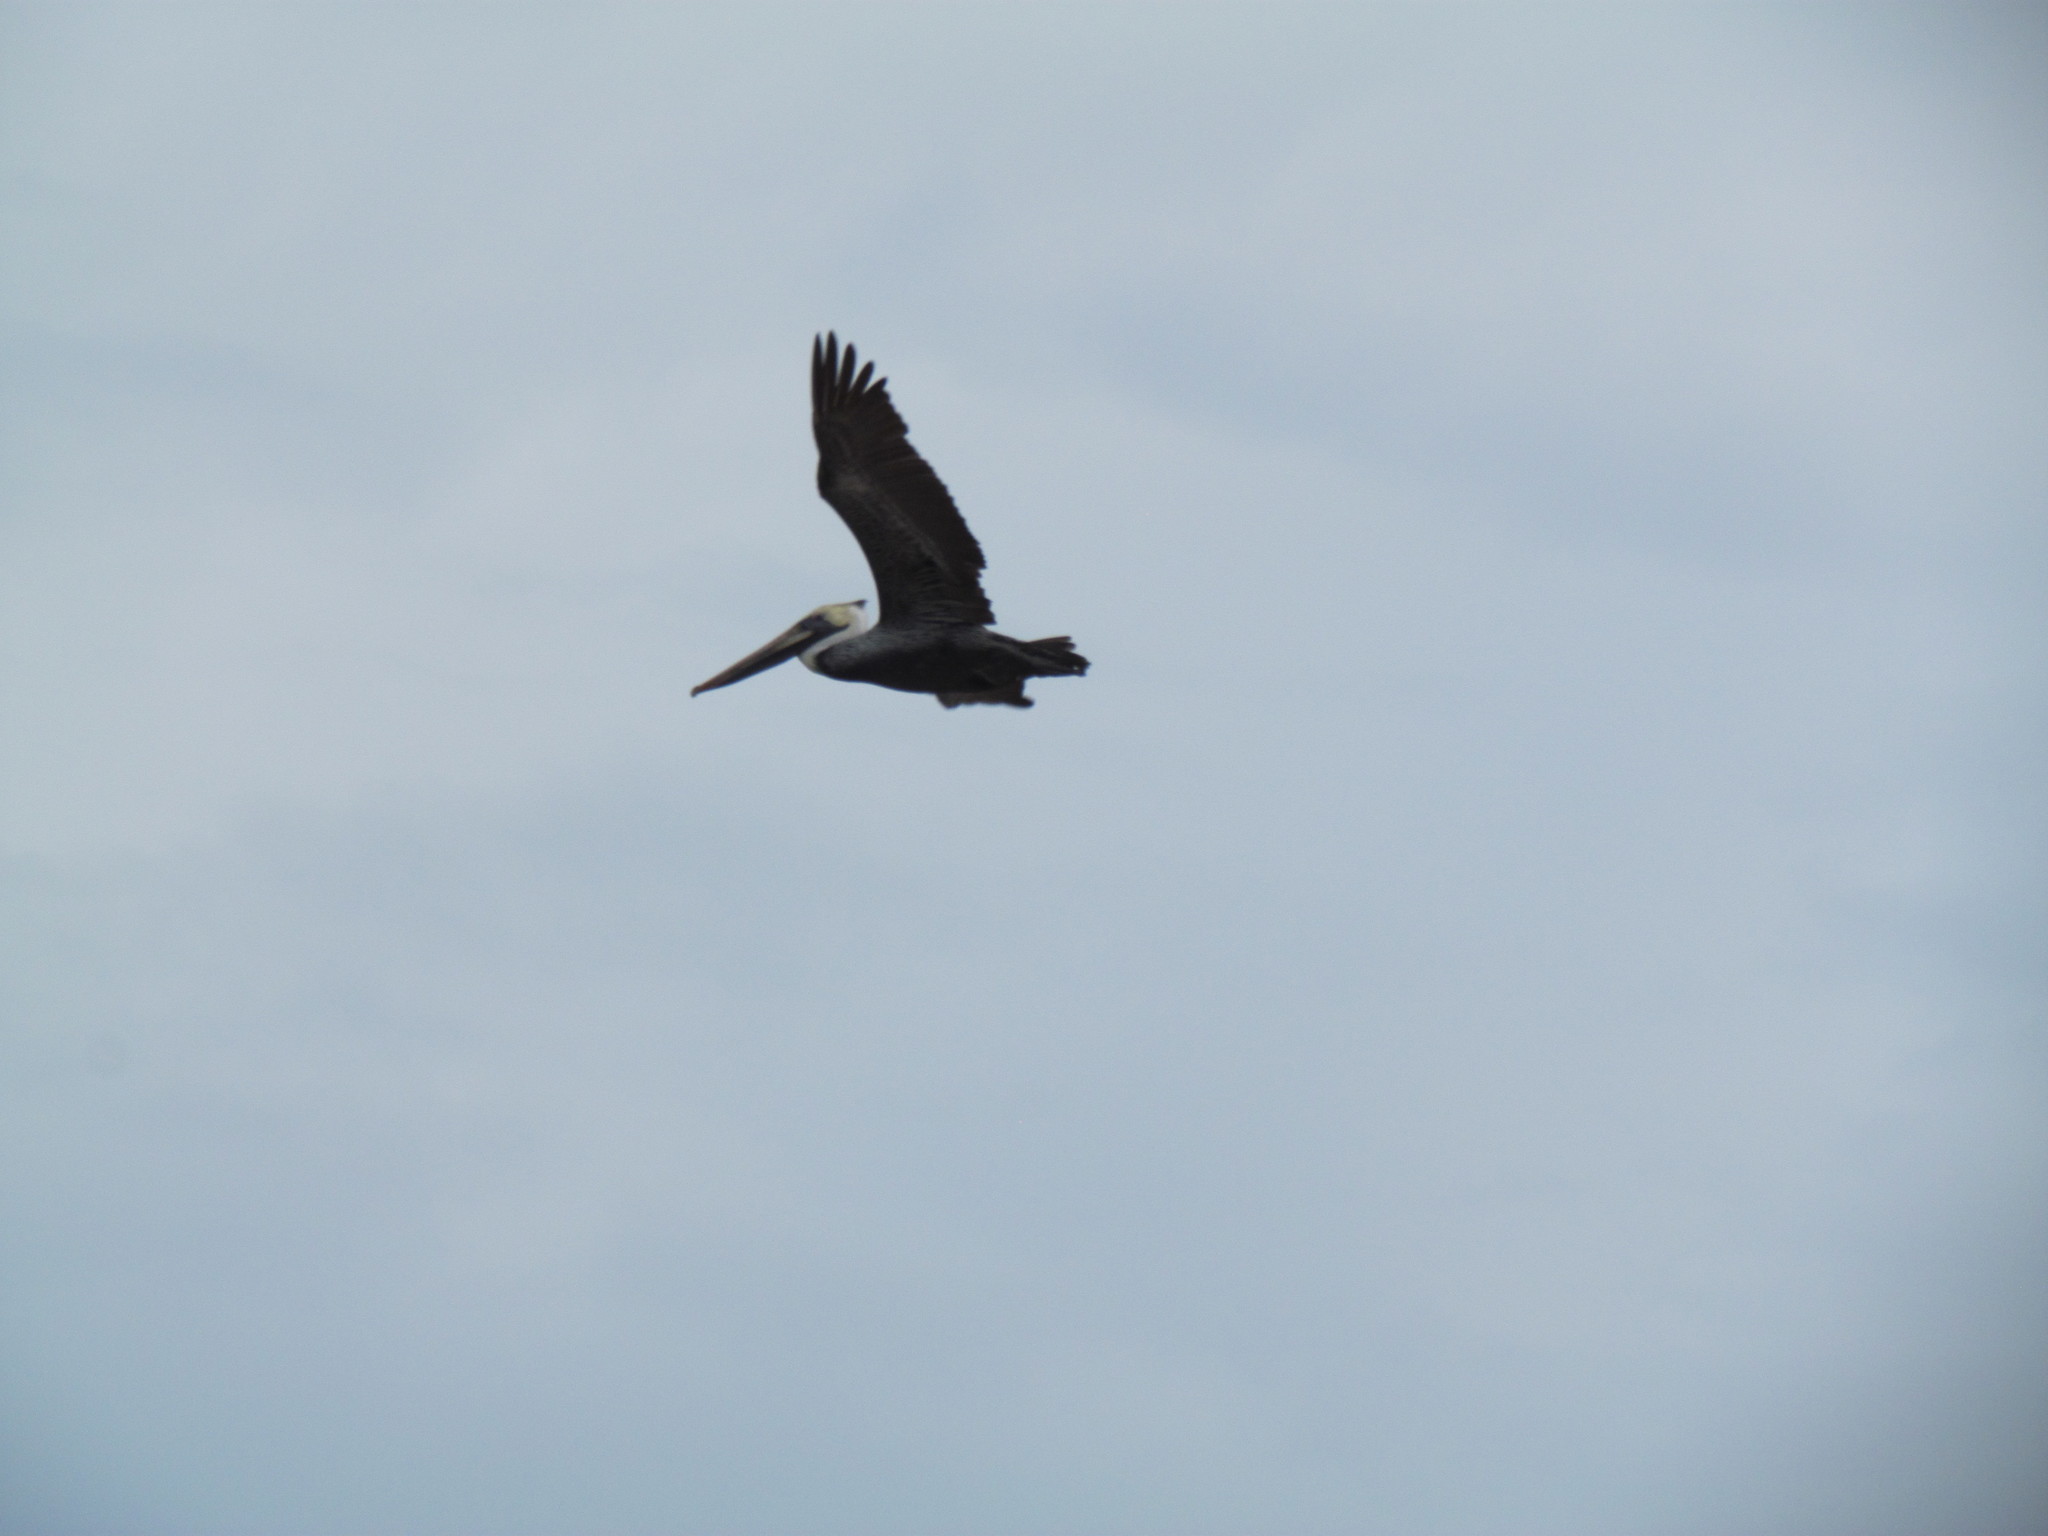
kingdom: Animalia
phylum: Chordata
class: Aves
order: Pelecaniformes
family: Pelecanidae
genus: Pelecanus
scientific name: Pelecanus occidentalis
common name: Brown pelican
